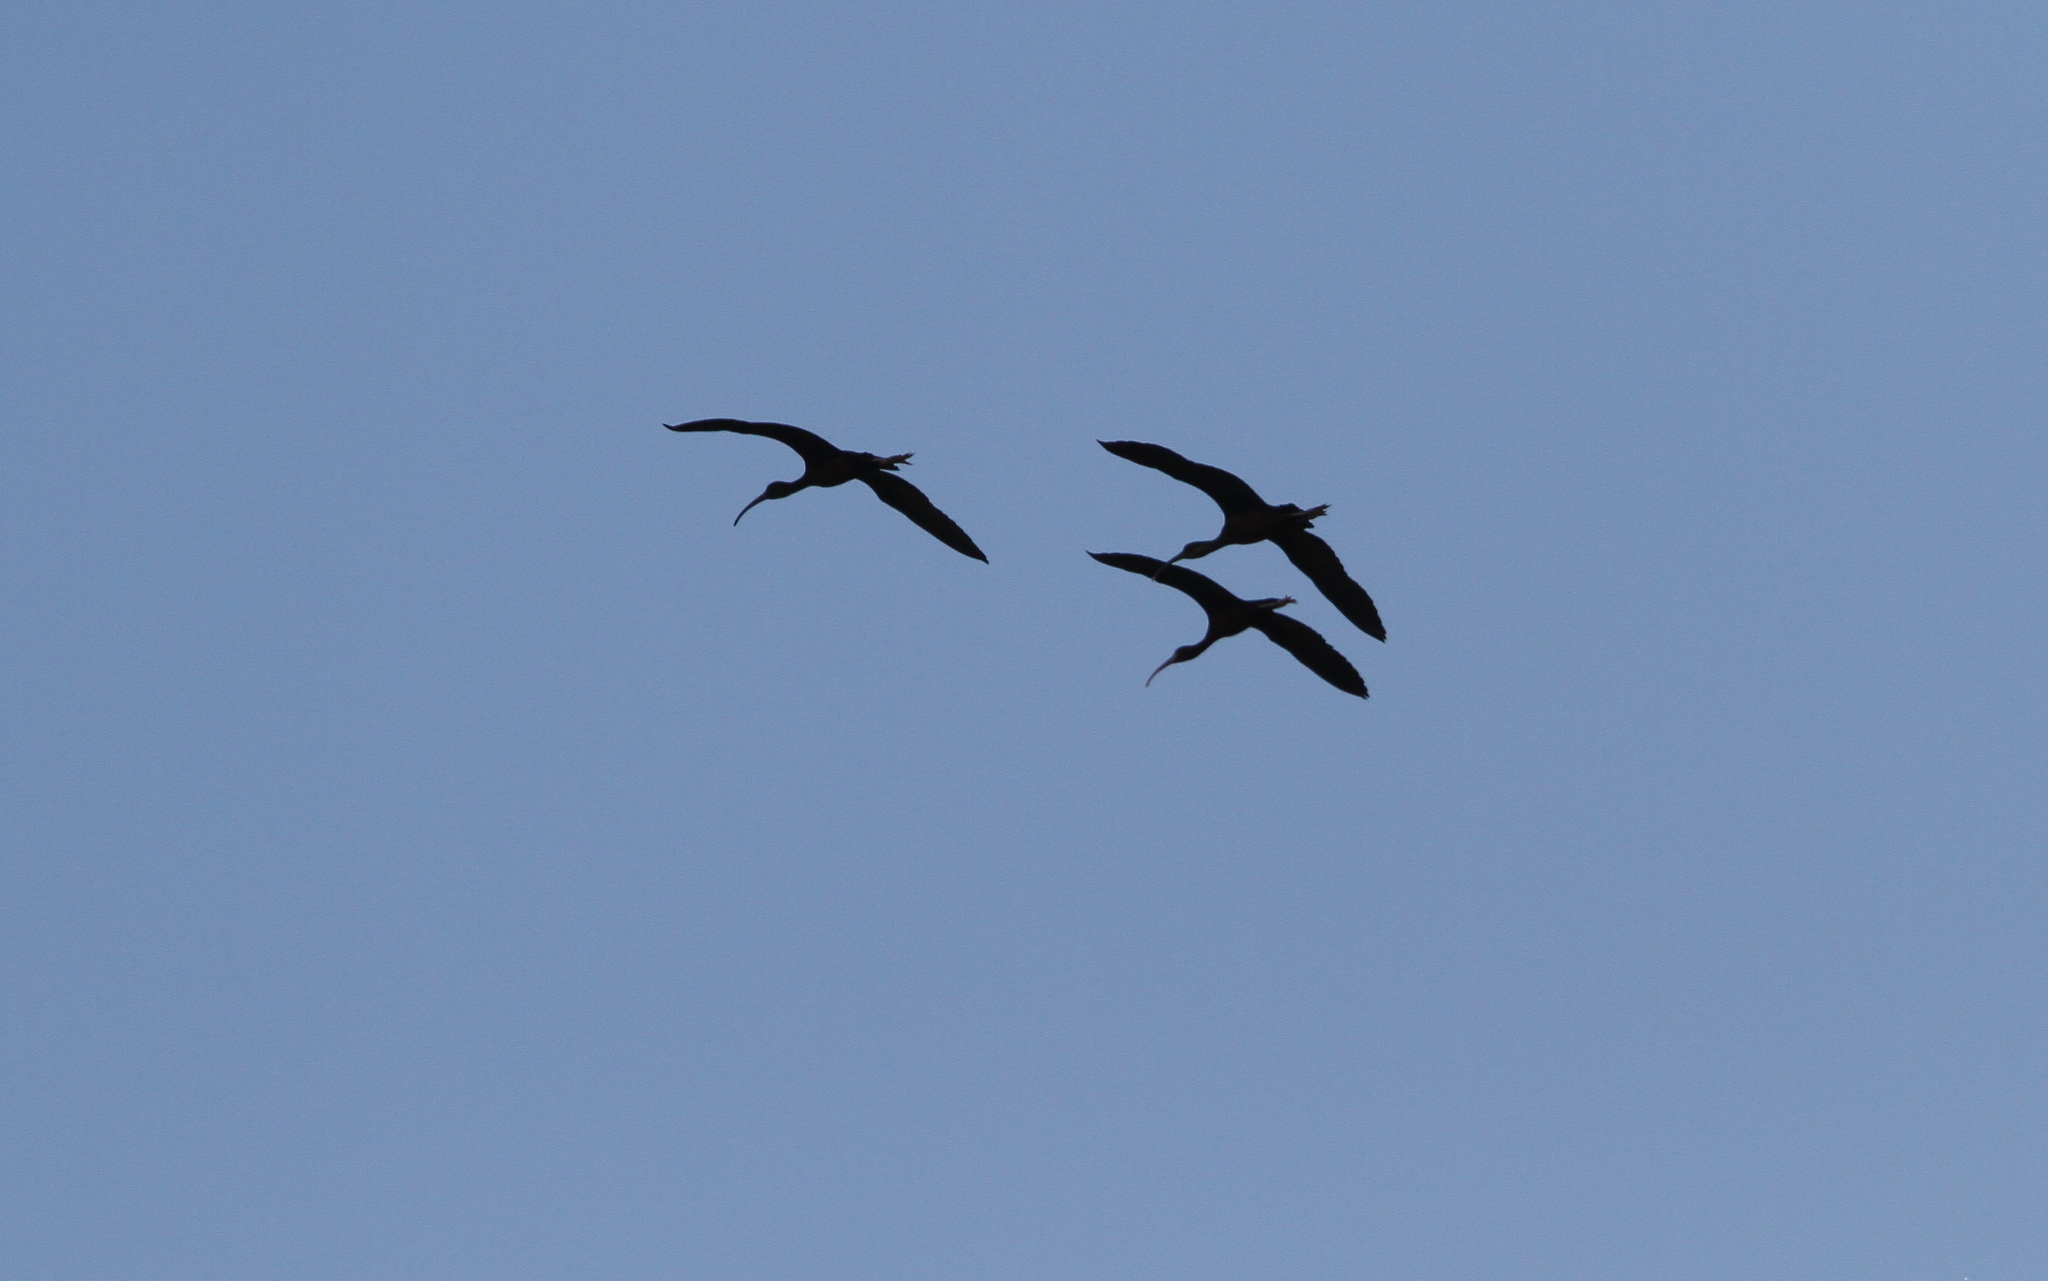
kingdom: Animalia
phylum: Chordata
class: Aves
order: Pelecaniformes
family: Threskiornithidae
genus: Plegadis
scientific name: Plegadis falcinellus
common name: Glossy ibis
